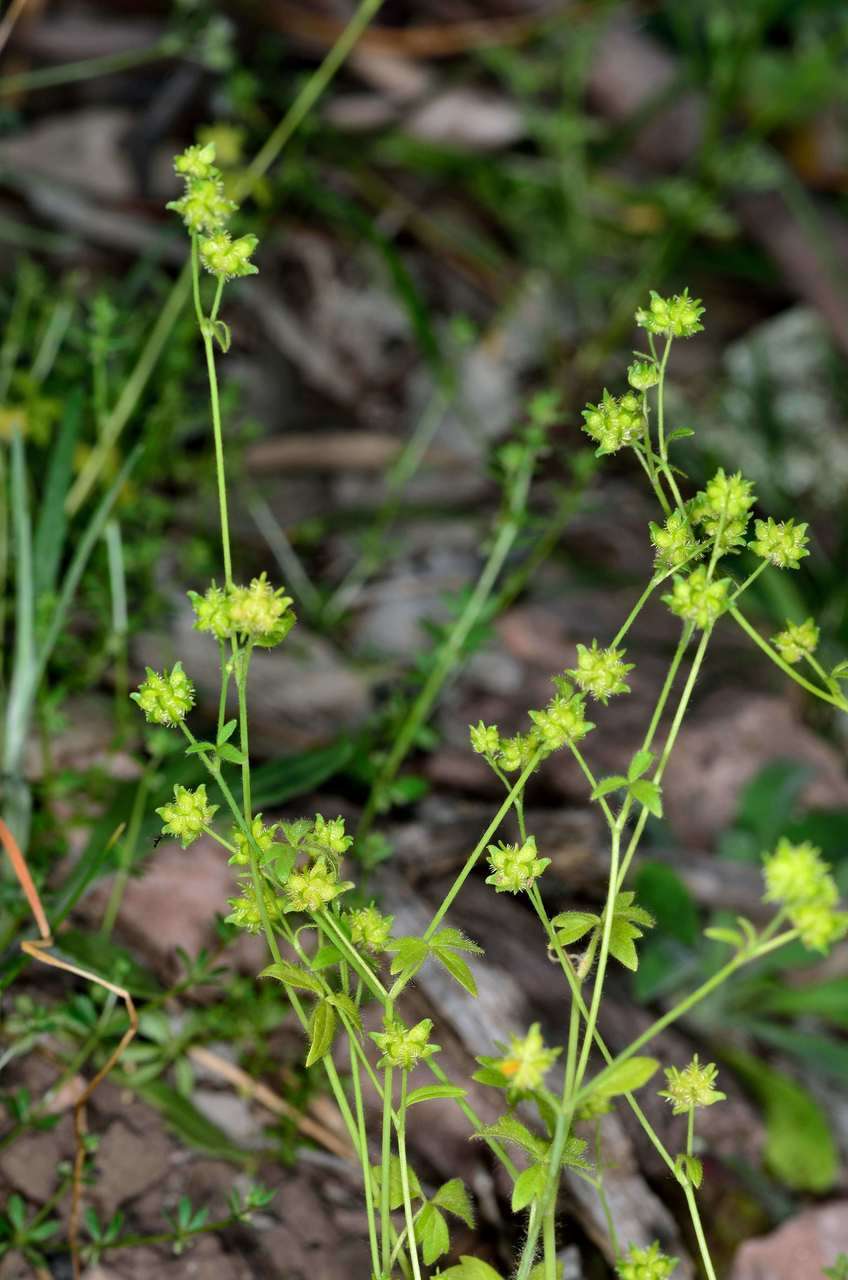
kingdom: Plantae
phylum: Tracheophyta
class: Magnoliopsida
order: Ranunculales
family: Ranunculaceae
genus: Ranunculus
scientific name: Ranunculus sessiliflorus
